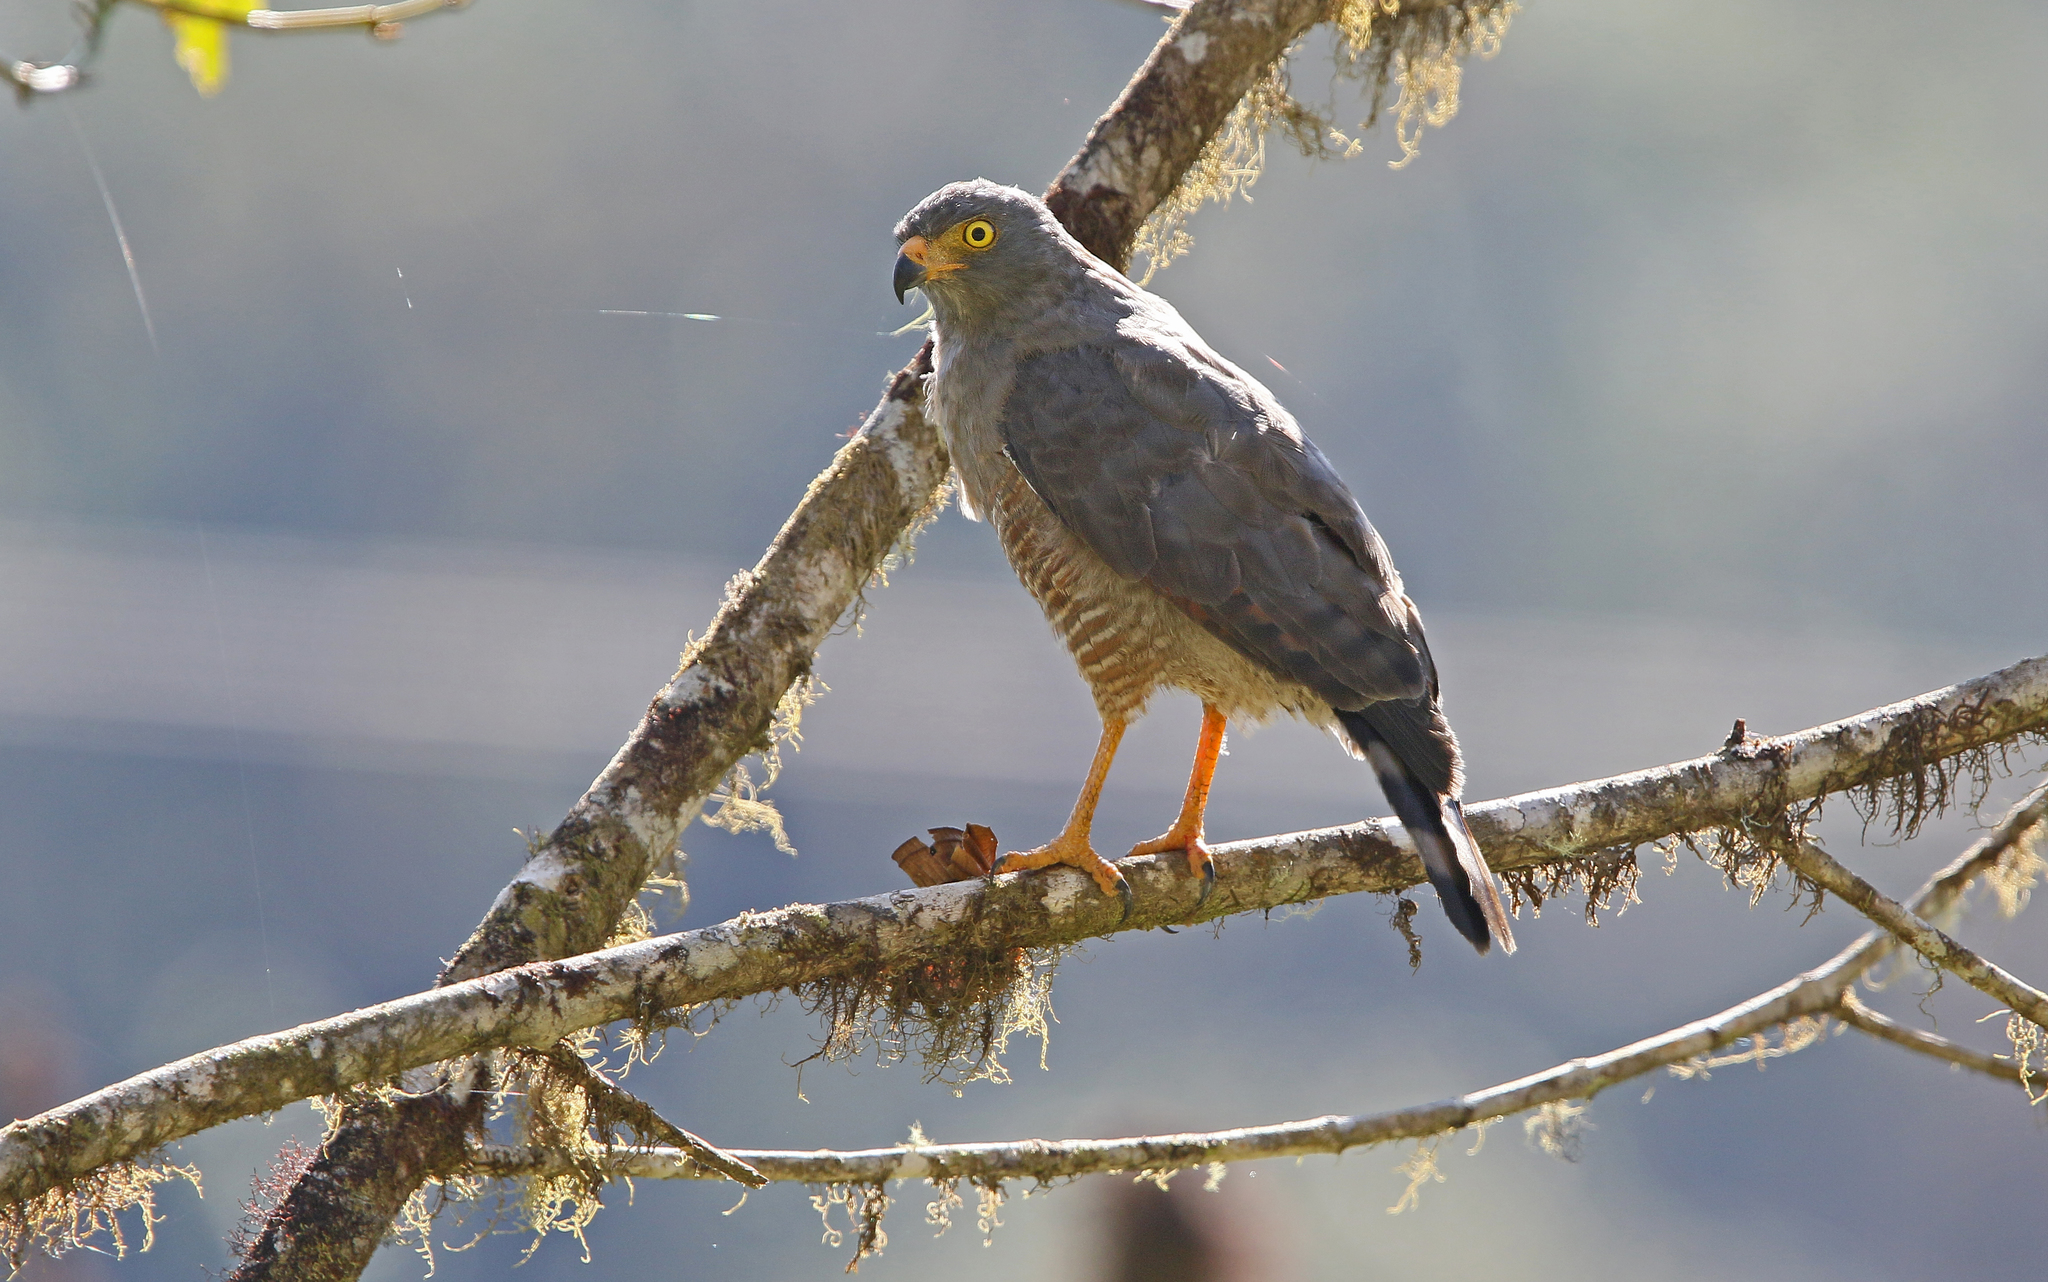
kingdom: Animalia
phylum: Chordata
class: Aves
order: Accipitriformes
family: Accipitridae
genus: Rupornis
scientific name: Rupornis magnirostris
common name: Roadside hawk
